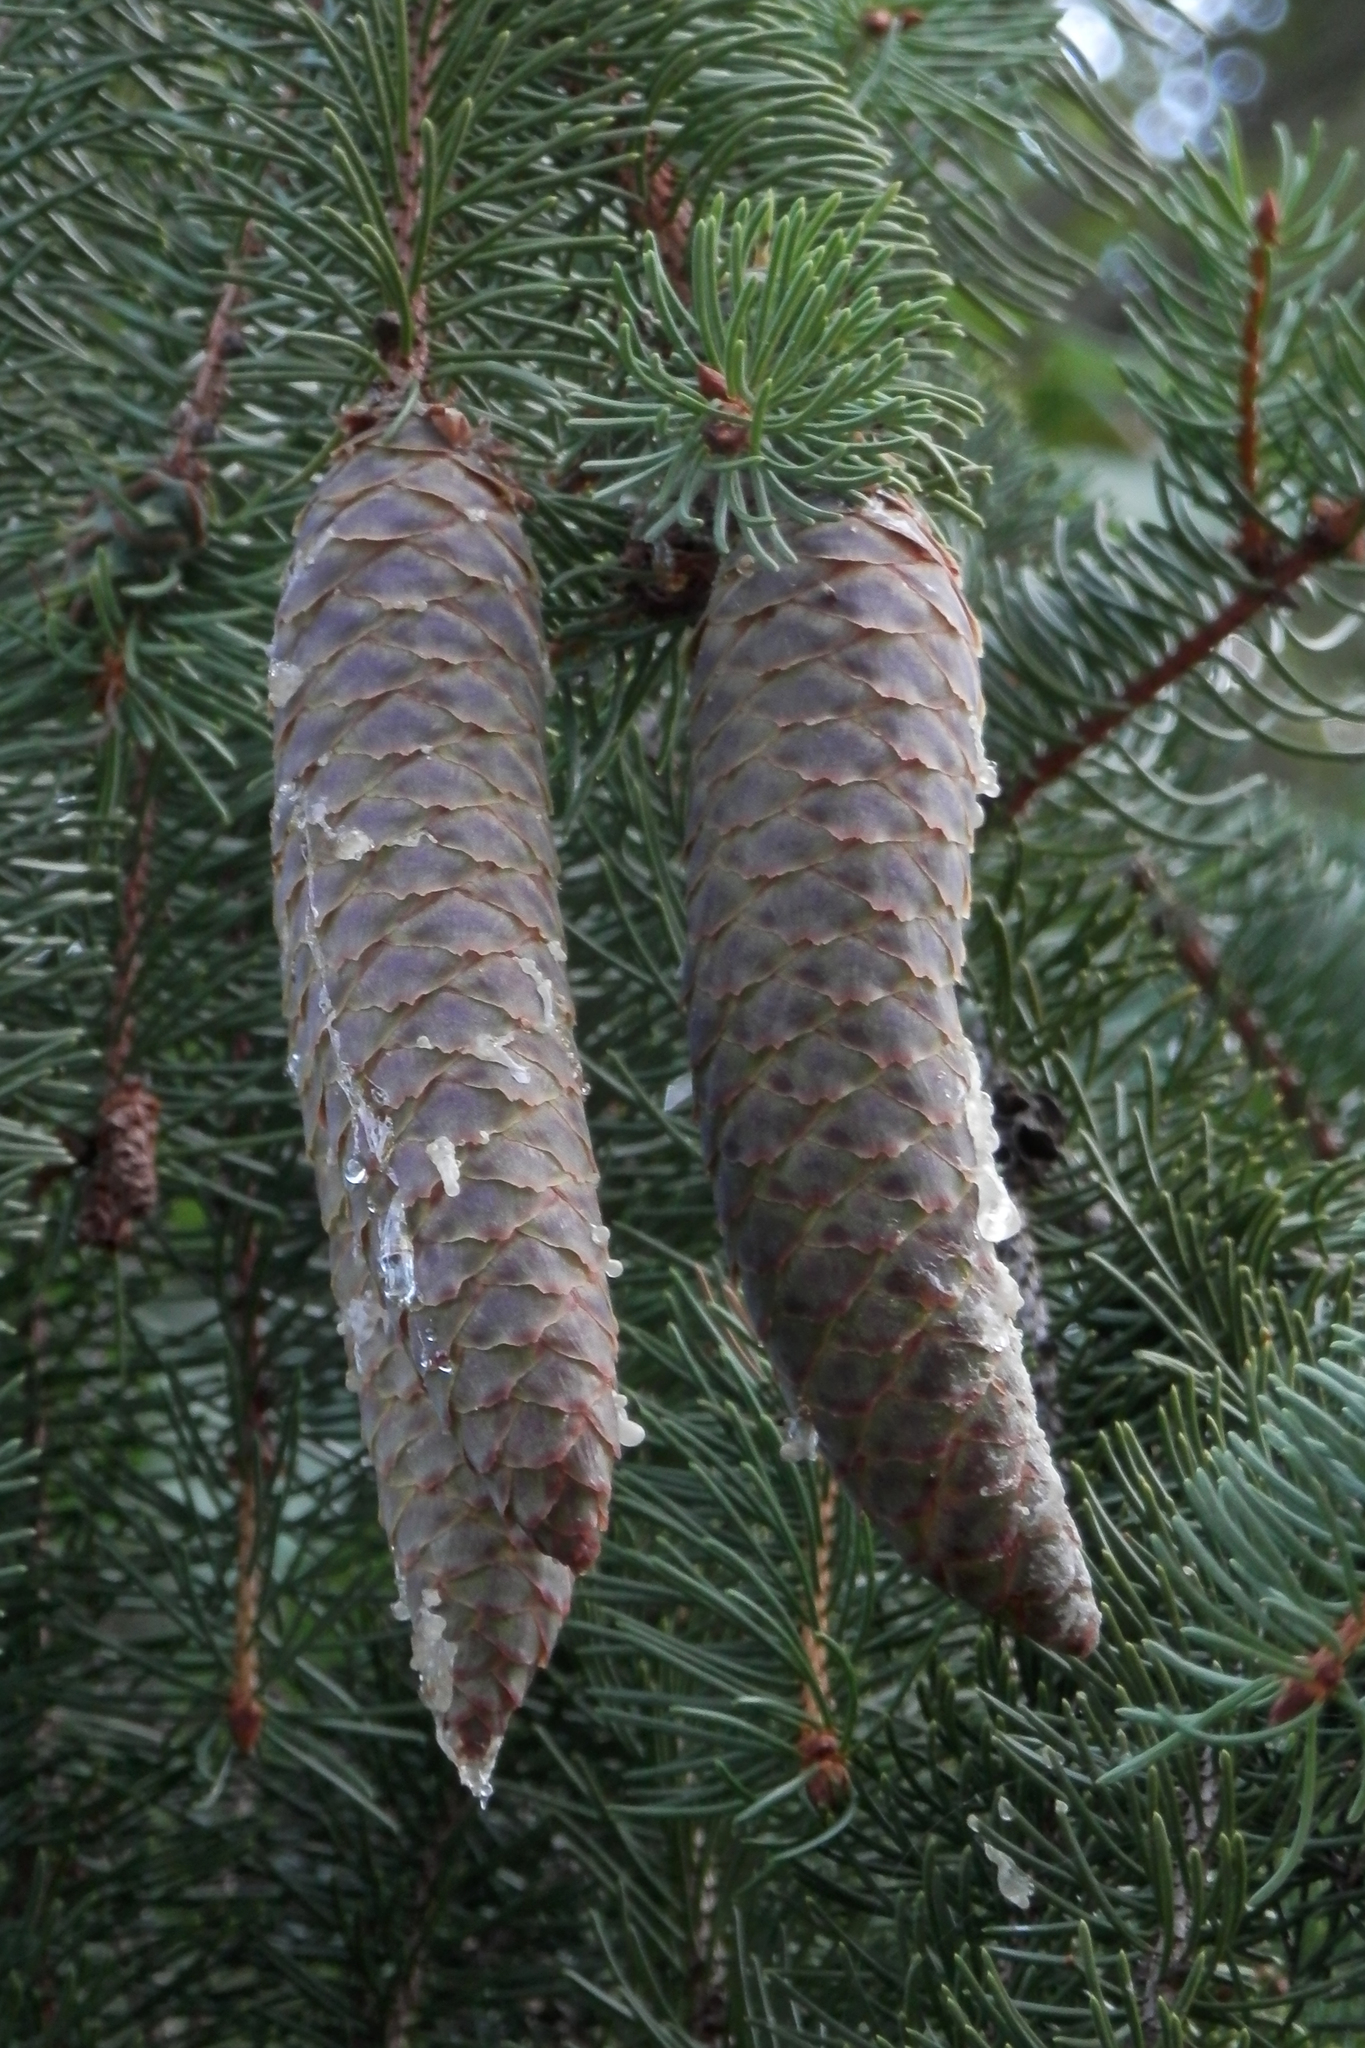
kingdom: Plantae
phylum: Tracheophyta
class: Pinopsida
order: Pinales
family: Pinaceae
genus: Picea
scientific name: Picea abies
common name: Norway spruce
